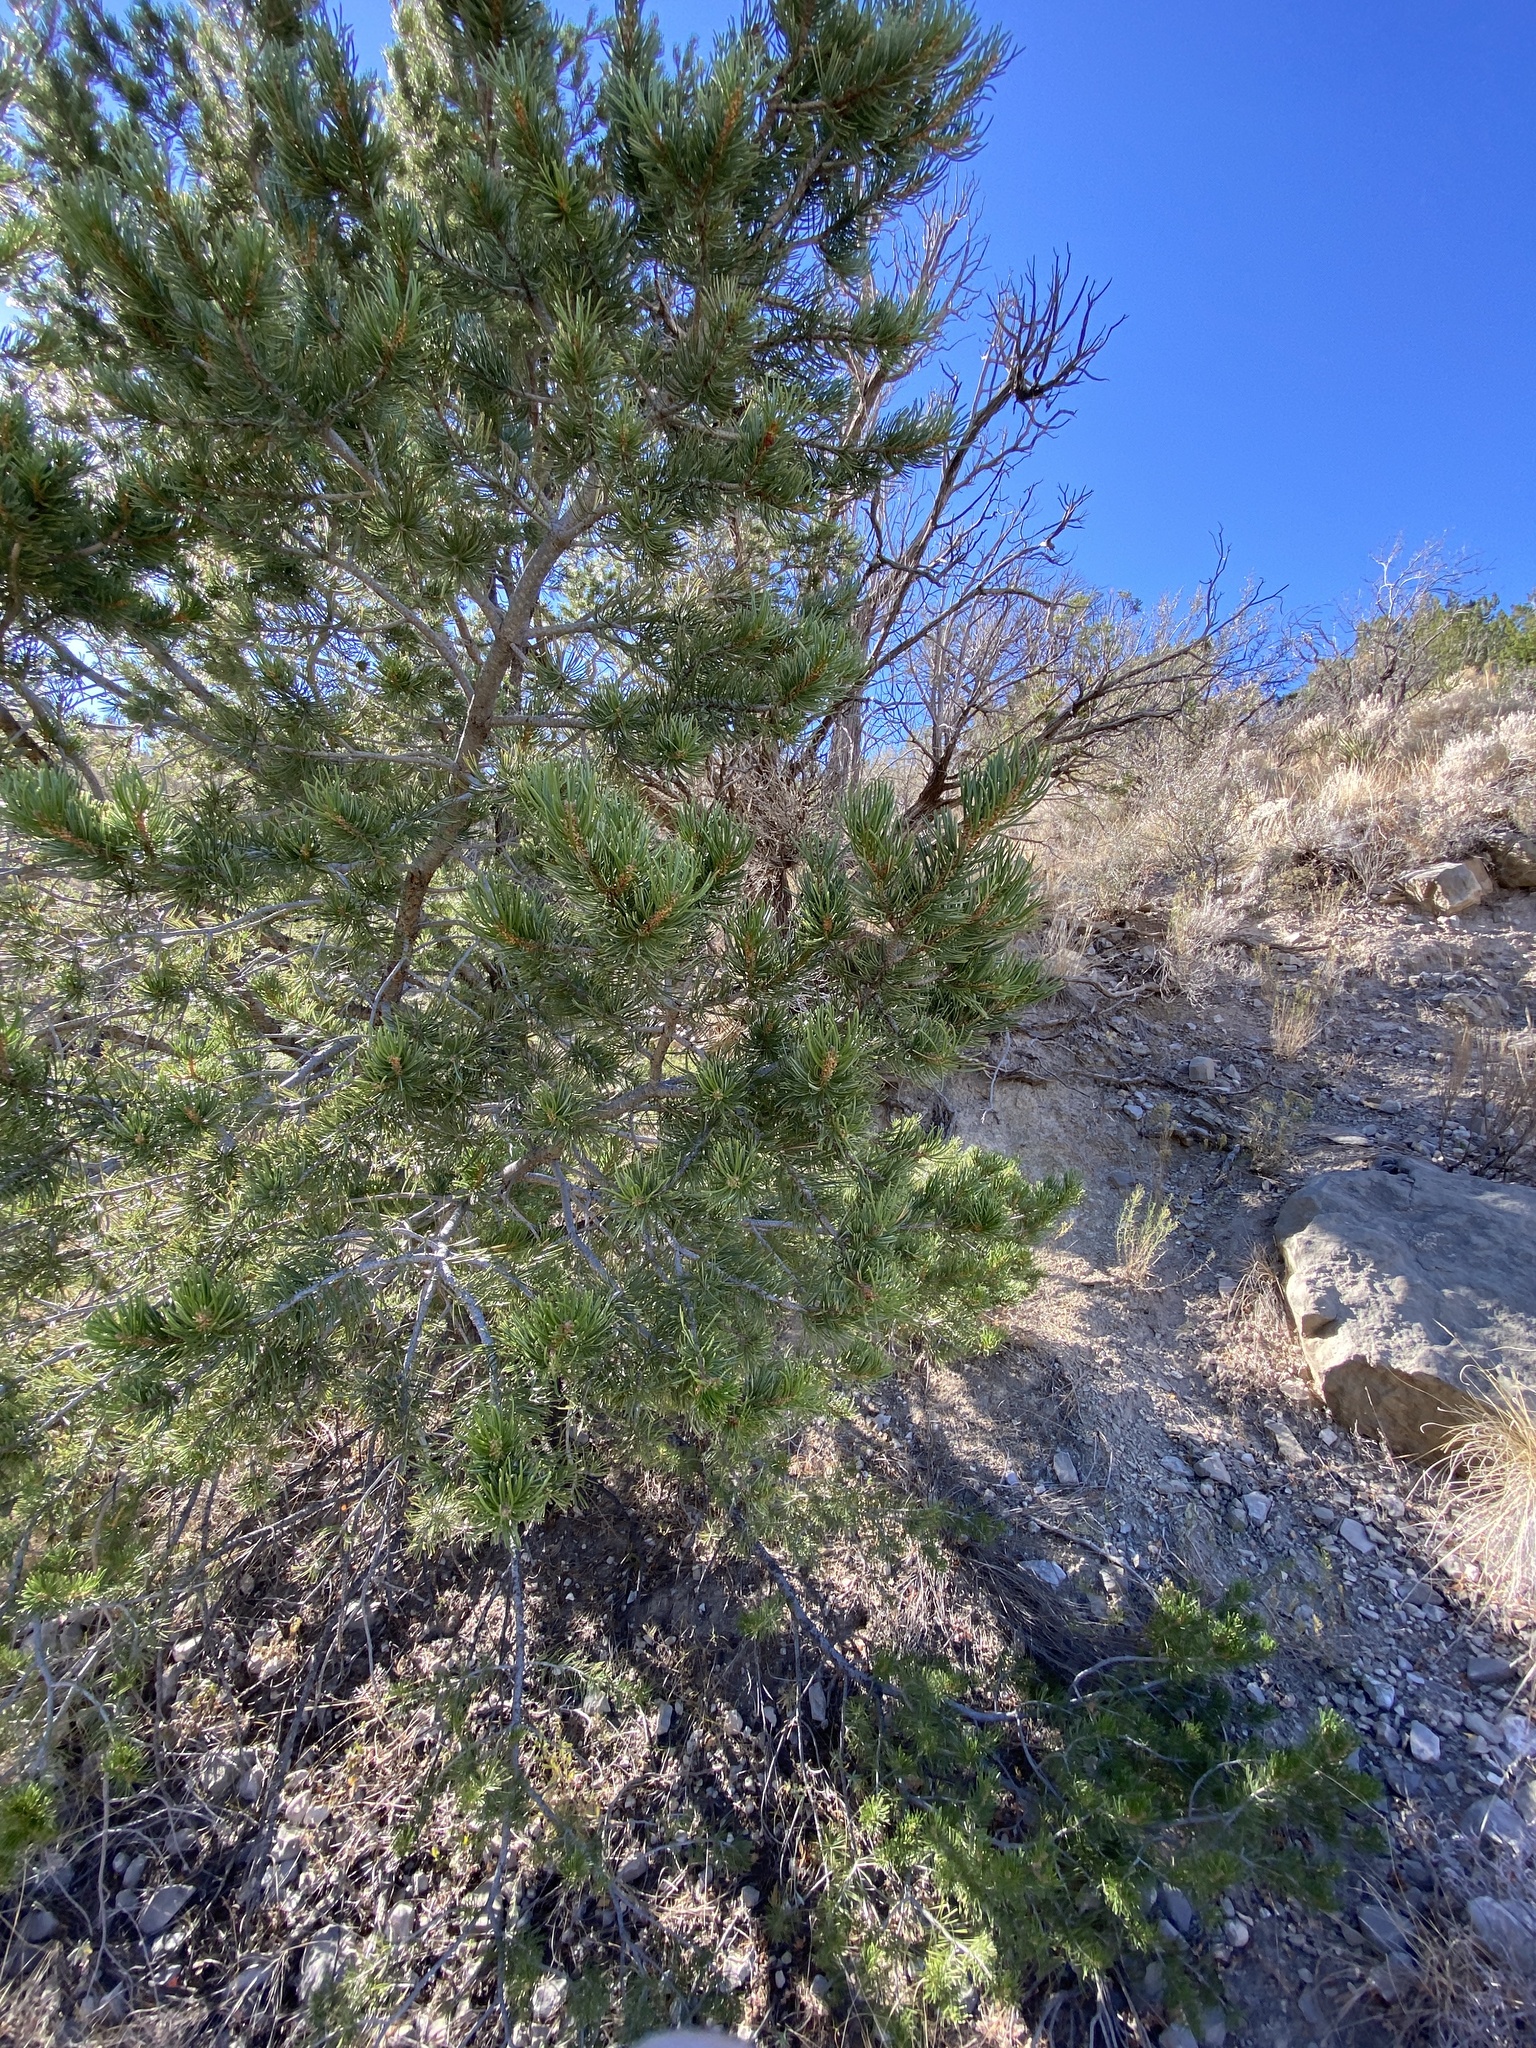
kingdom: Plantae
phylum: Tracheophyta
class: Pinopsida
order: Pinales
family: Pinaceae
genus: Pinus
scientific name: Pinus edulis
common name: Colorado pinyon
